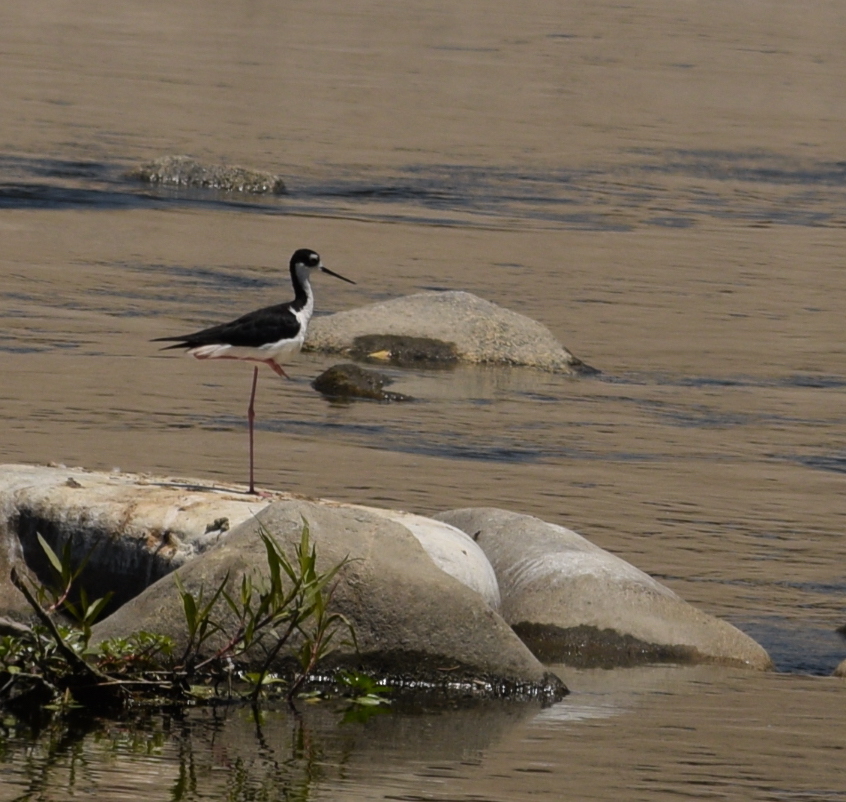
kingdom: Animalia
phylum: Chordata
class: Aves
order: Charadriiformes
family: Recurvirostridae
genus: Himantopus
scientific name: Himantopus mexicanus
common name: Black-necked stilt
